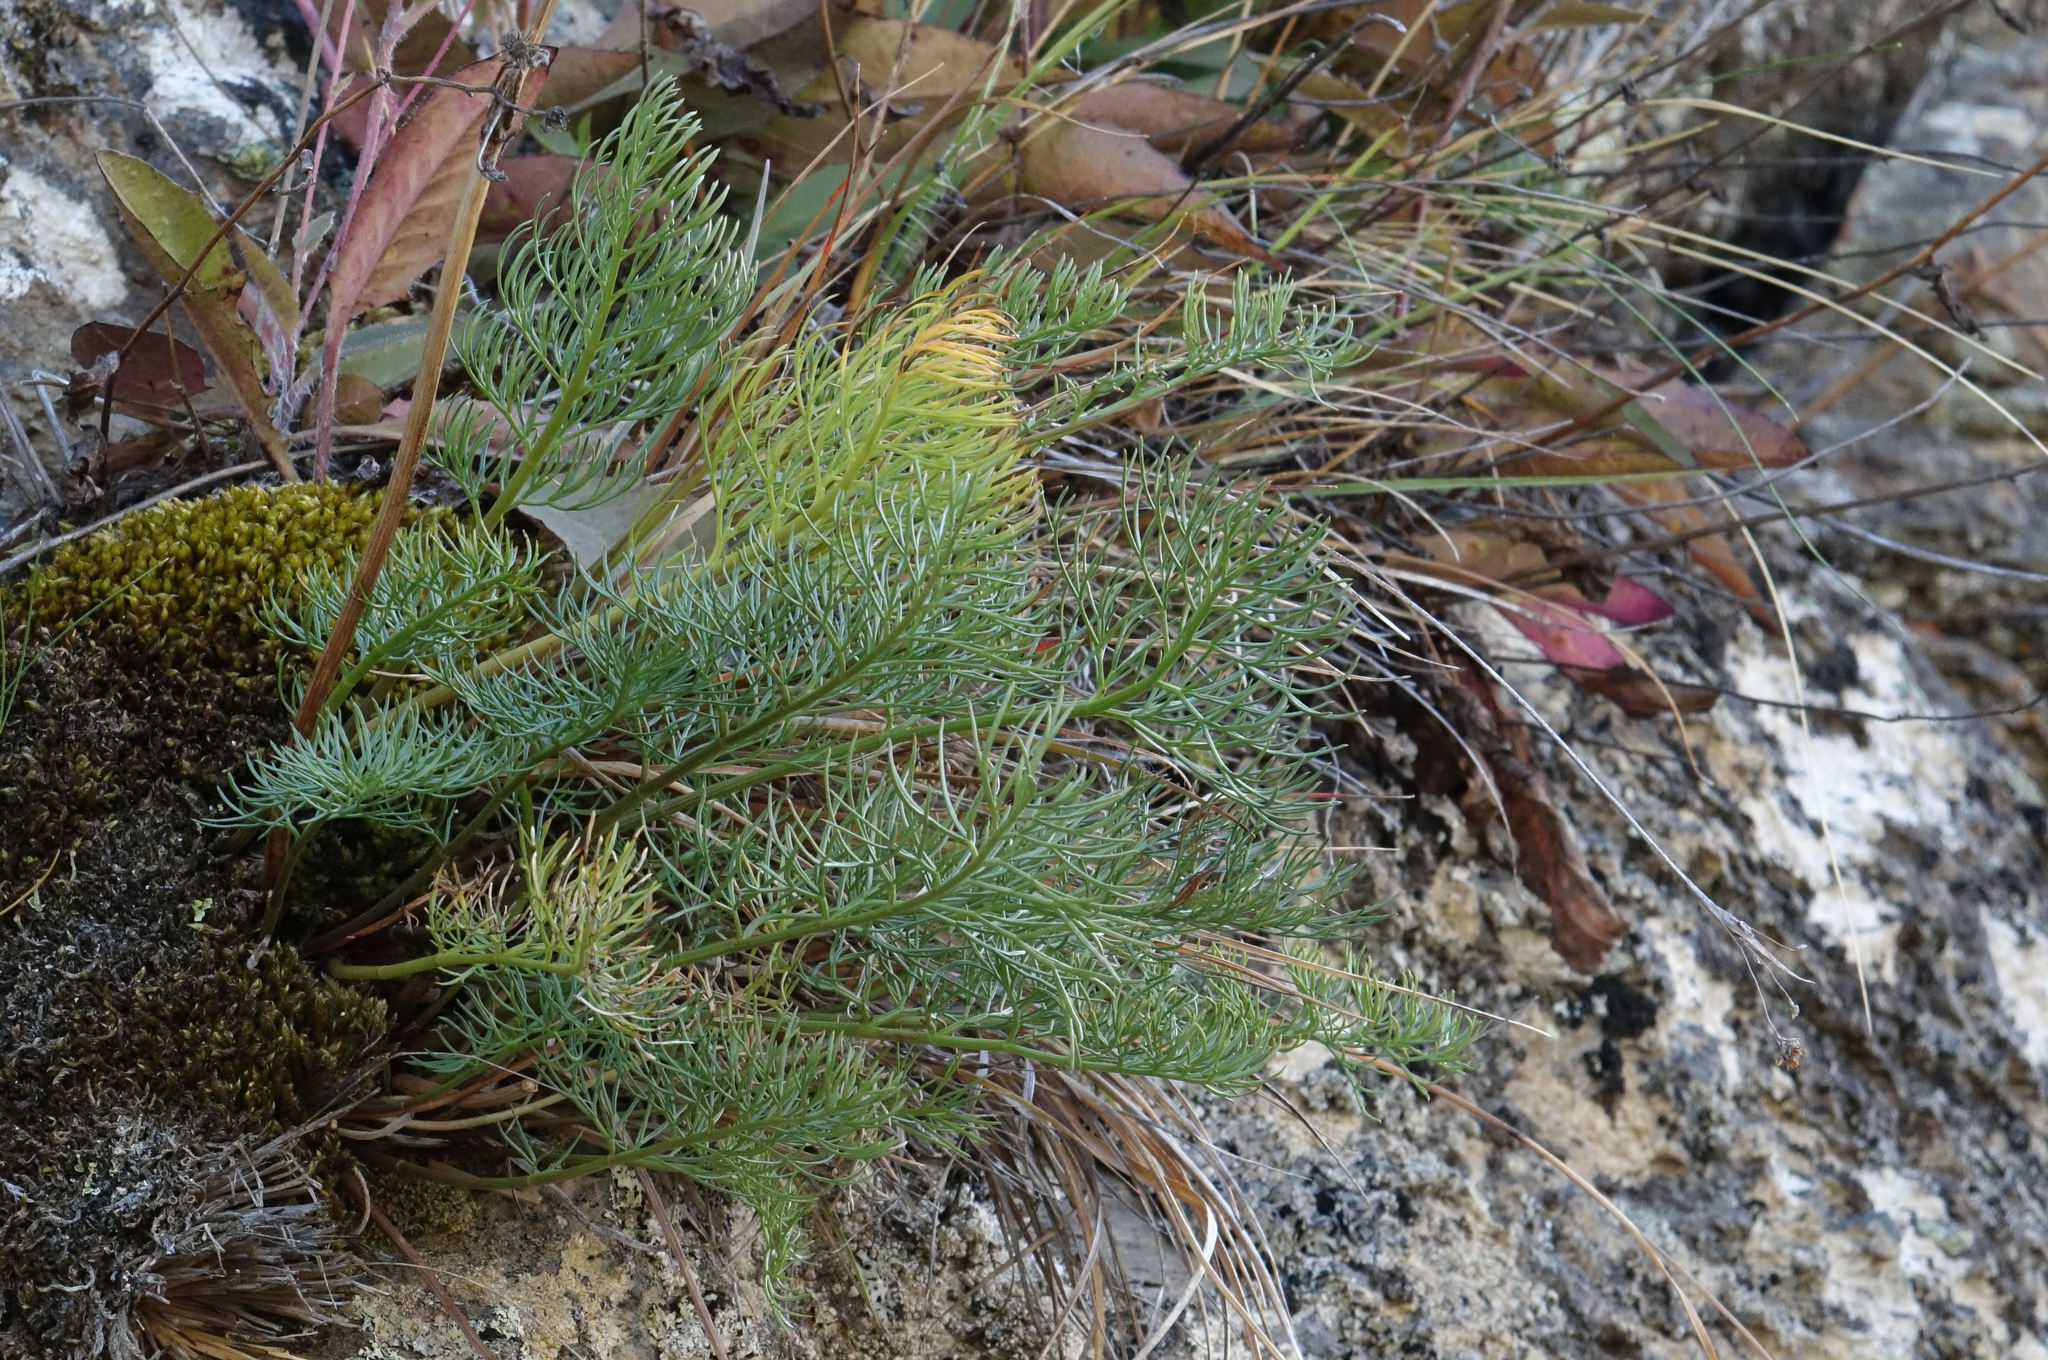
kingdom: Plantae
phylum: Tracheophyta
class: Magnoliopsida
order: Apiales
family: Apiaceae
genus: Anisotome
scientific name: Anisotome cauticola
